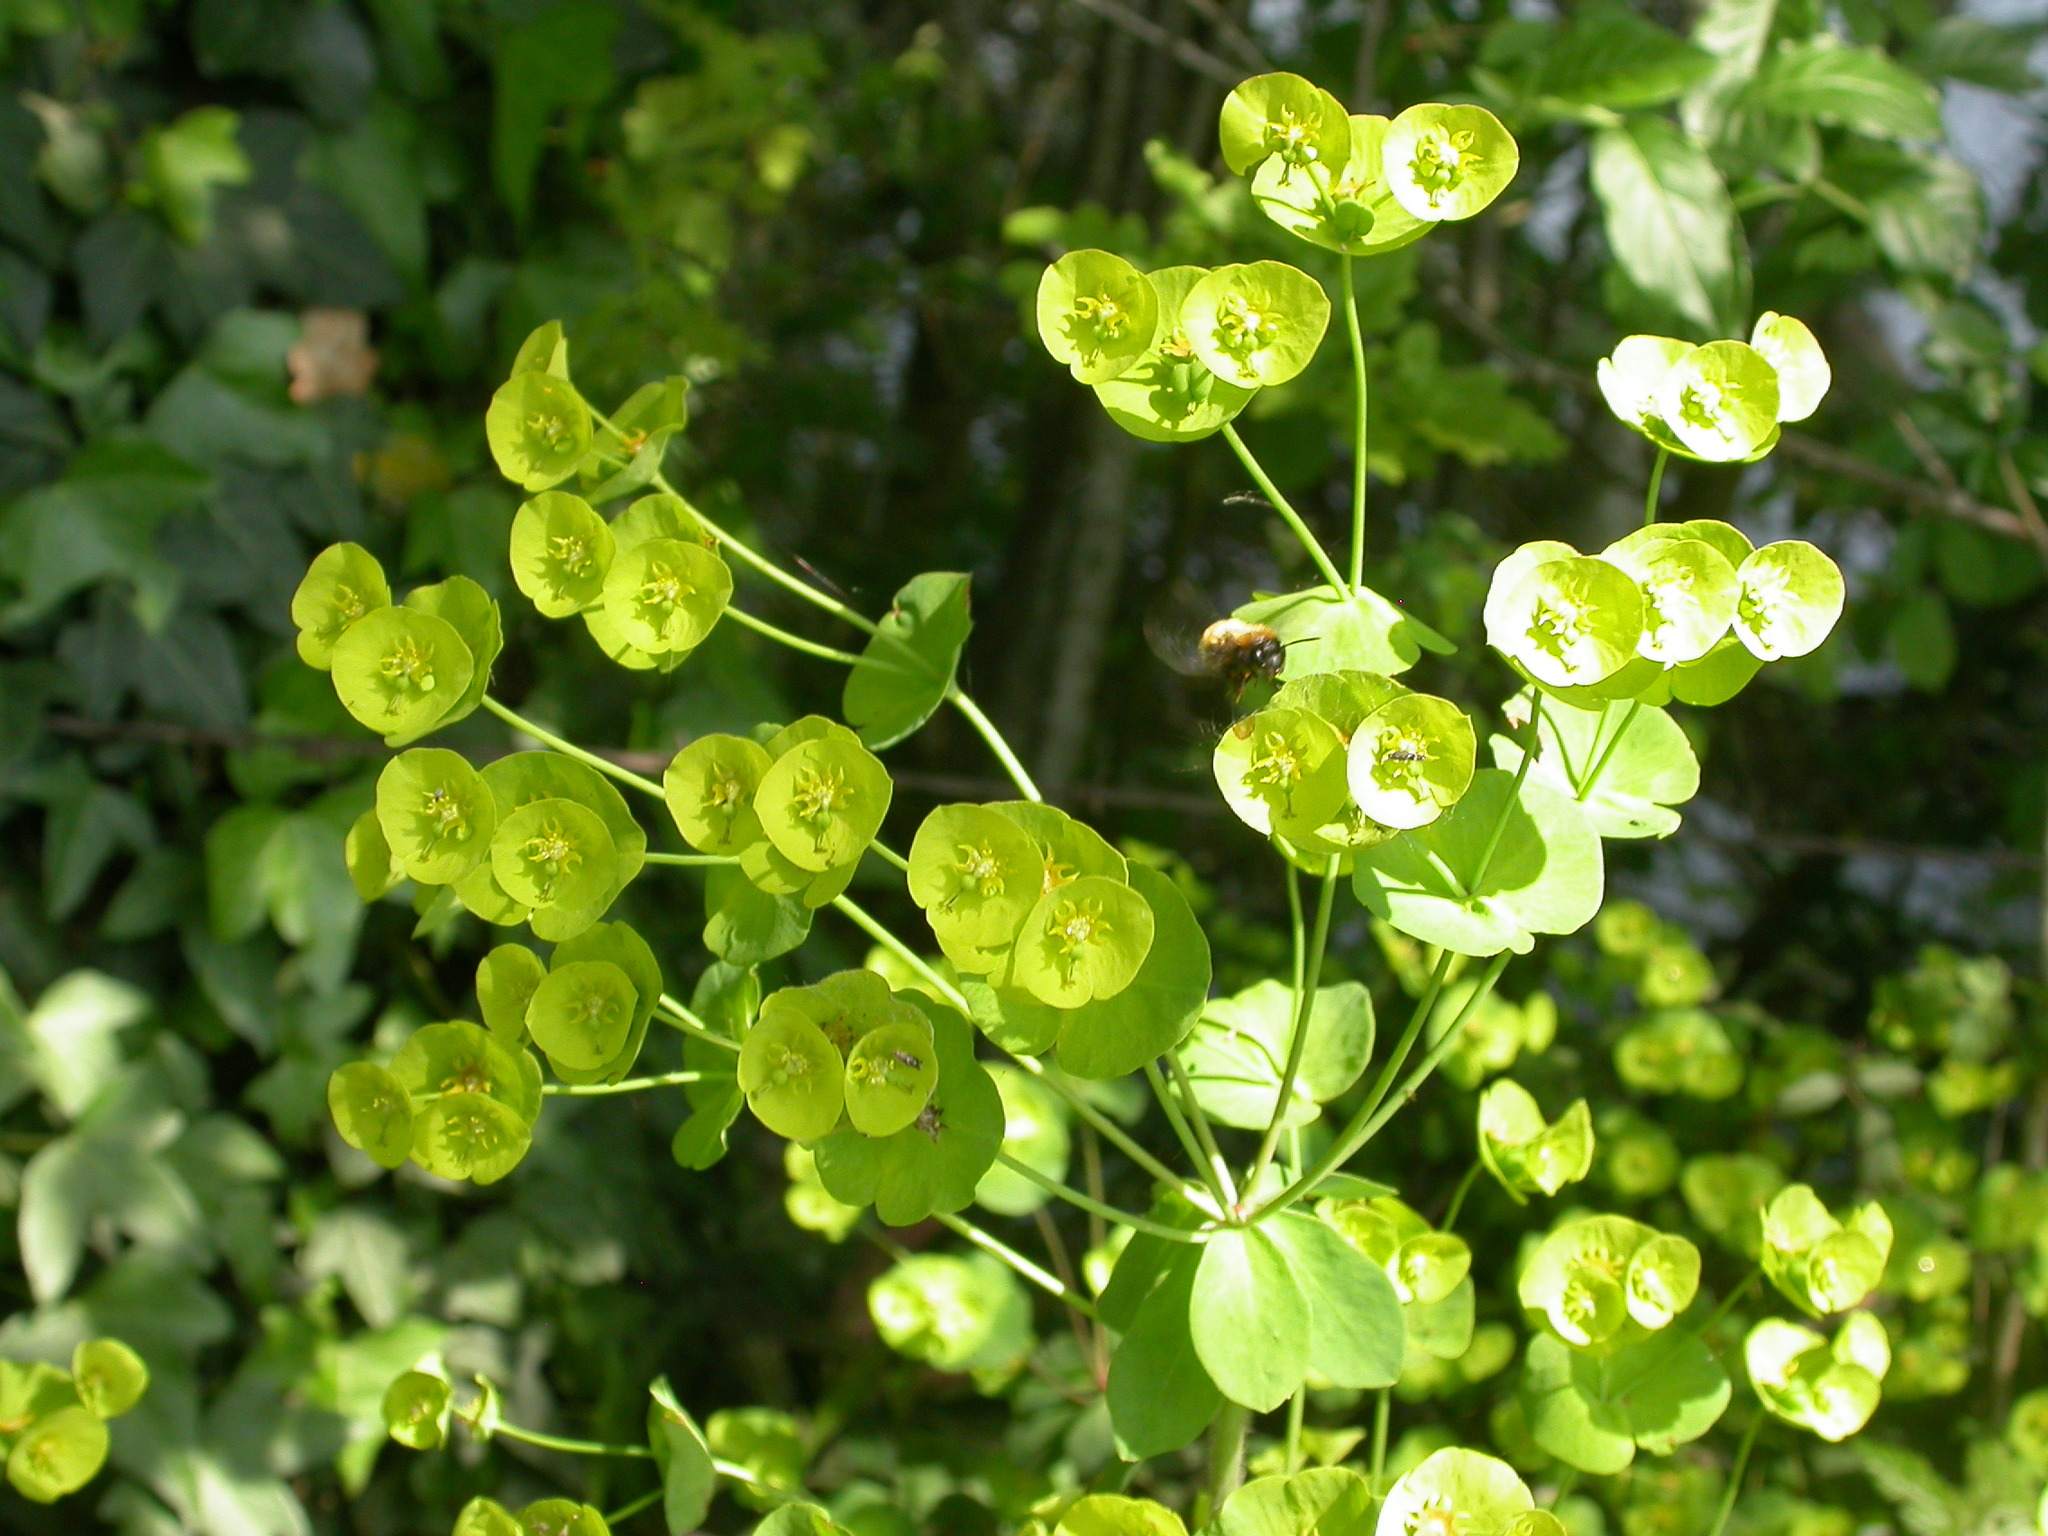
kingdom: Animalia
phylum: Arthropoda
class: Insecta
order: Hymenoptera
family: Andrenidae
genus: Andrena
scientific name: Andrena fulva
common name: Tawny mining bee
